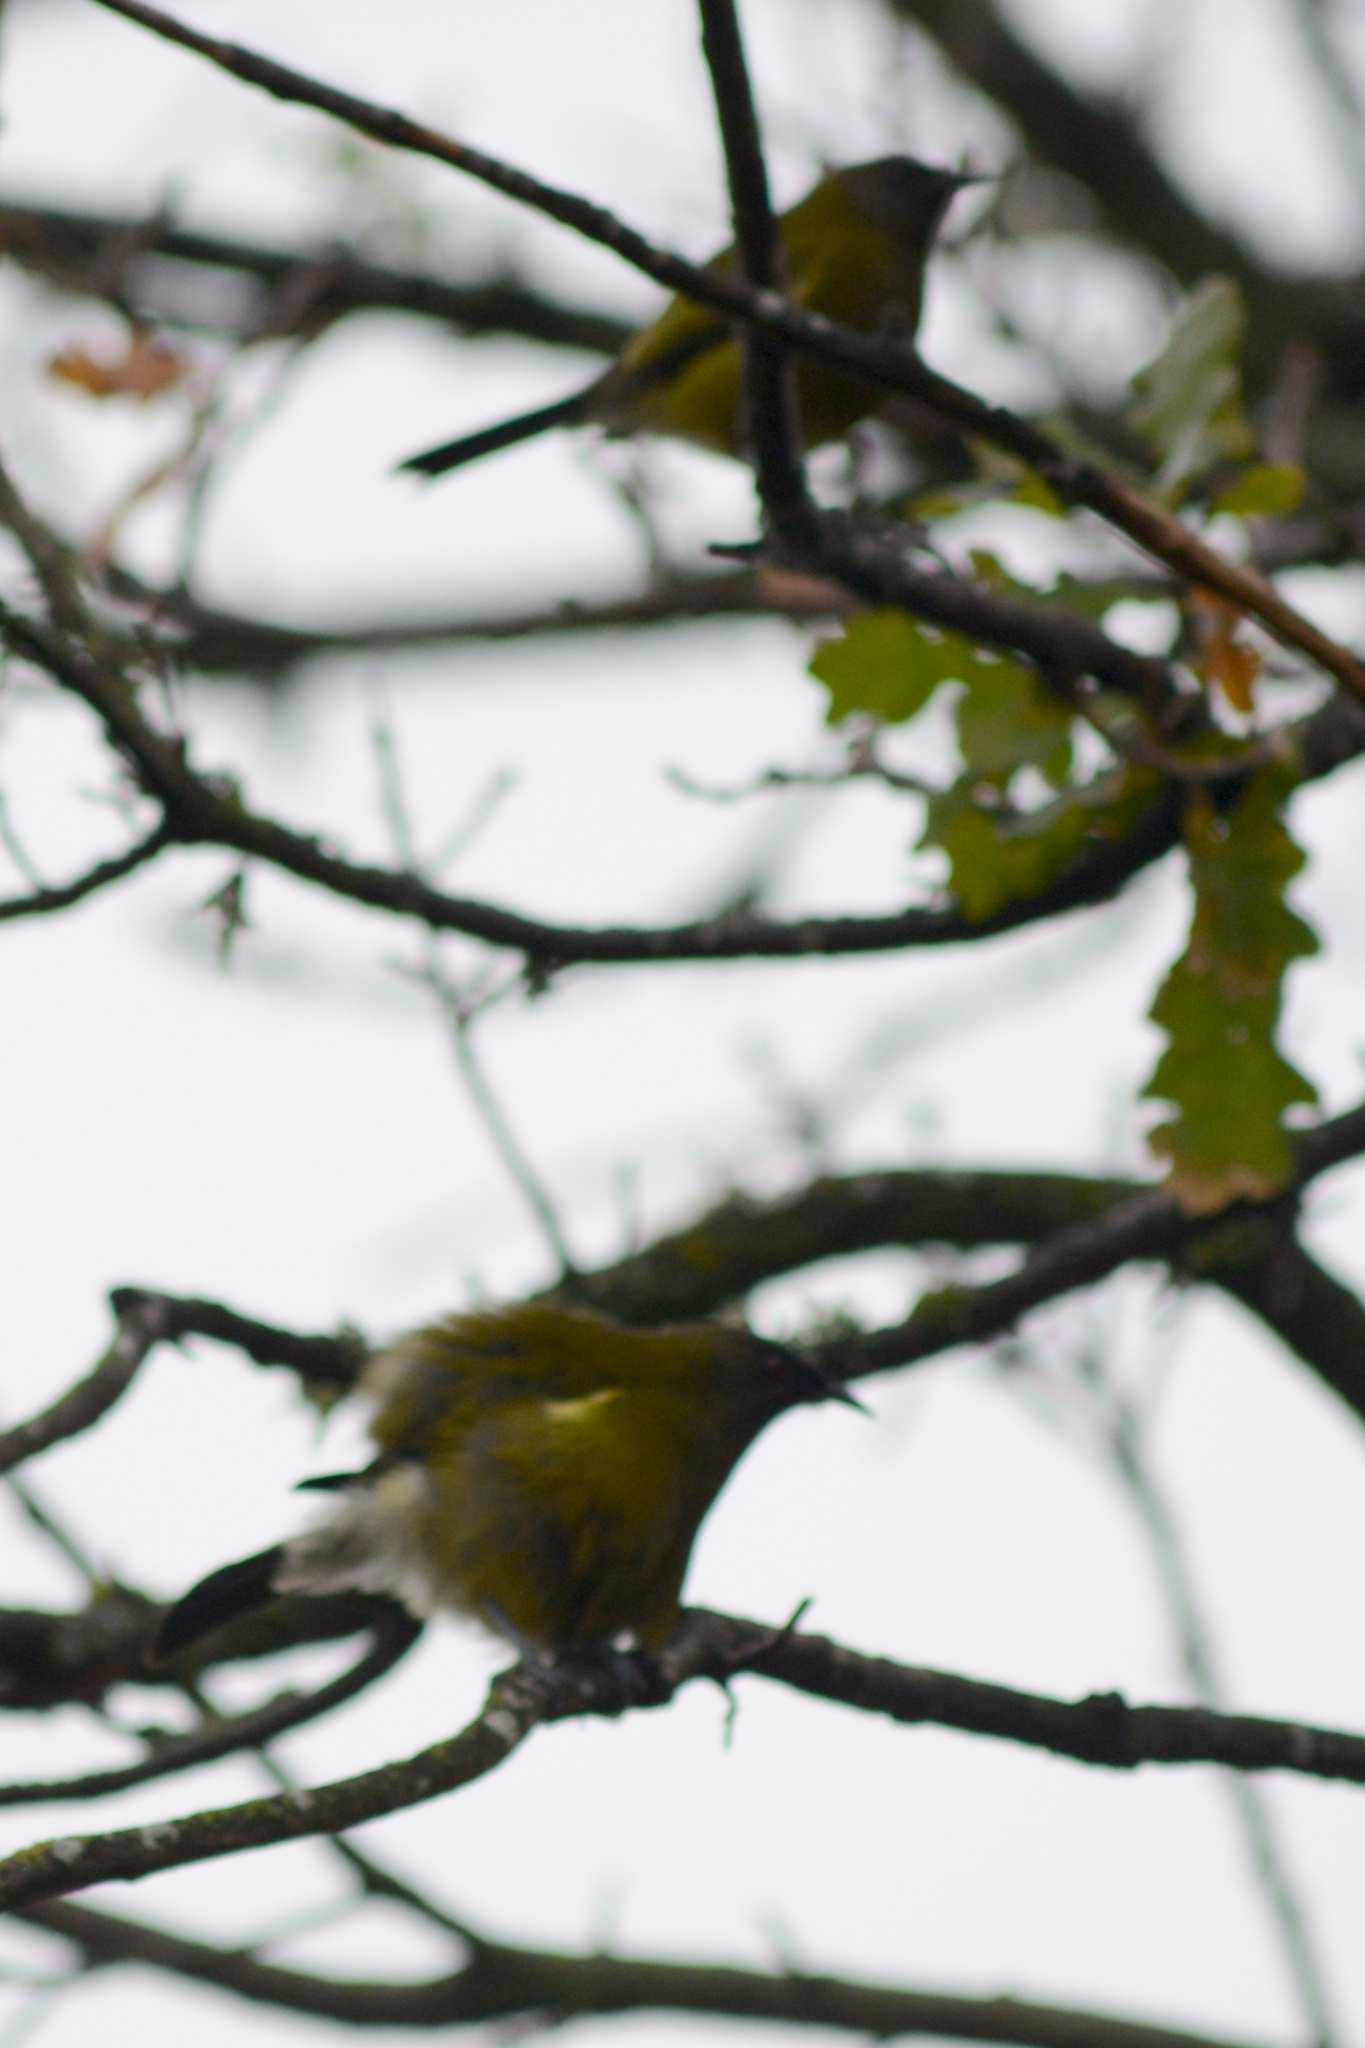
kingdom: Animalia
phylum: Chordata
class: Aves
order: Passeriformes
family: Meliphagidae
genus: Anthornis
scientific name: Anthornis melanura
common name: New zealand bellbird
